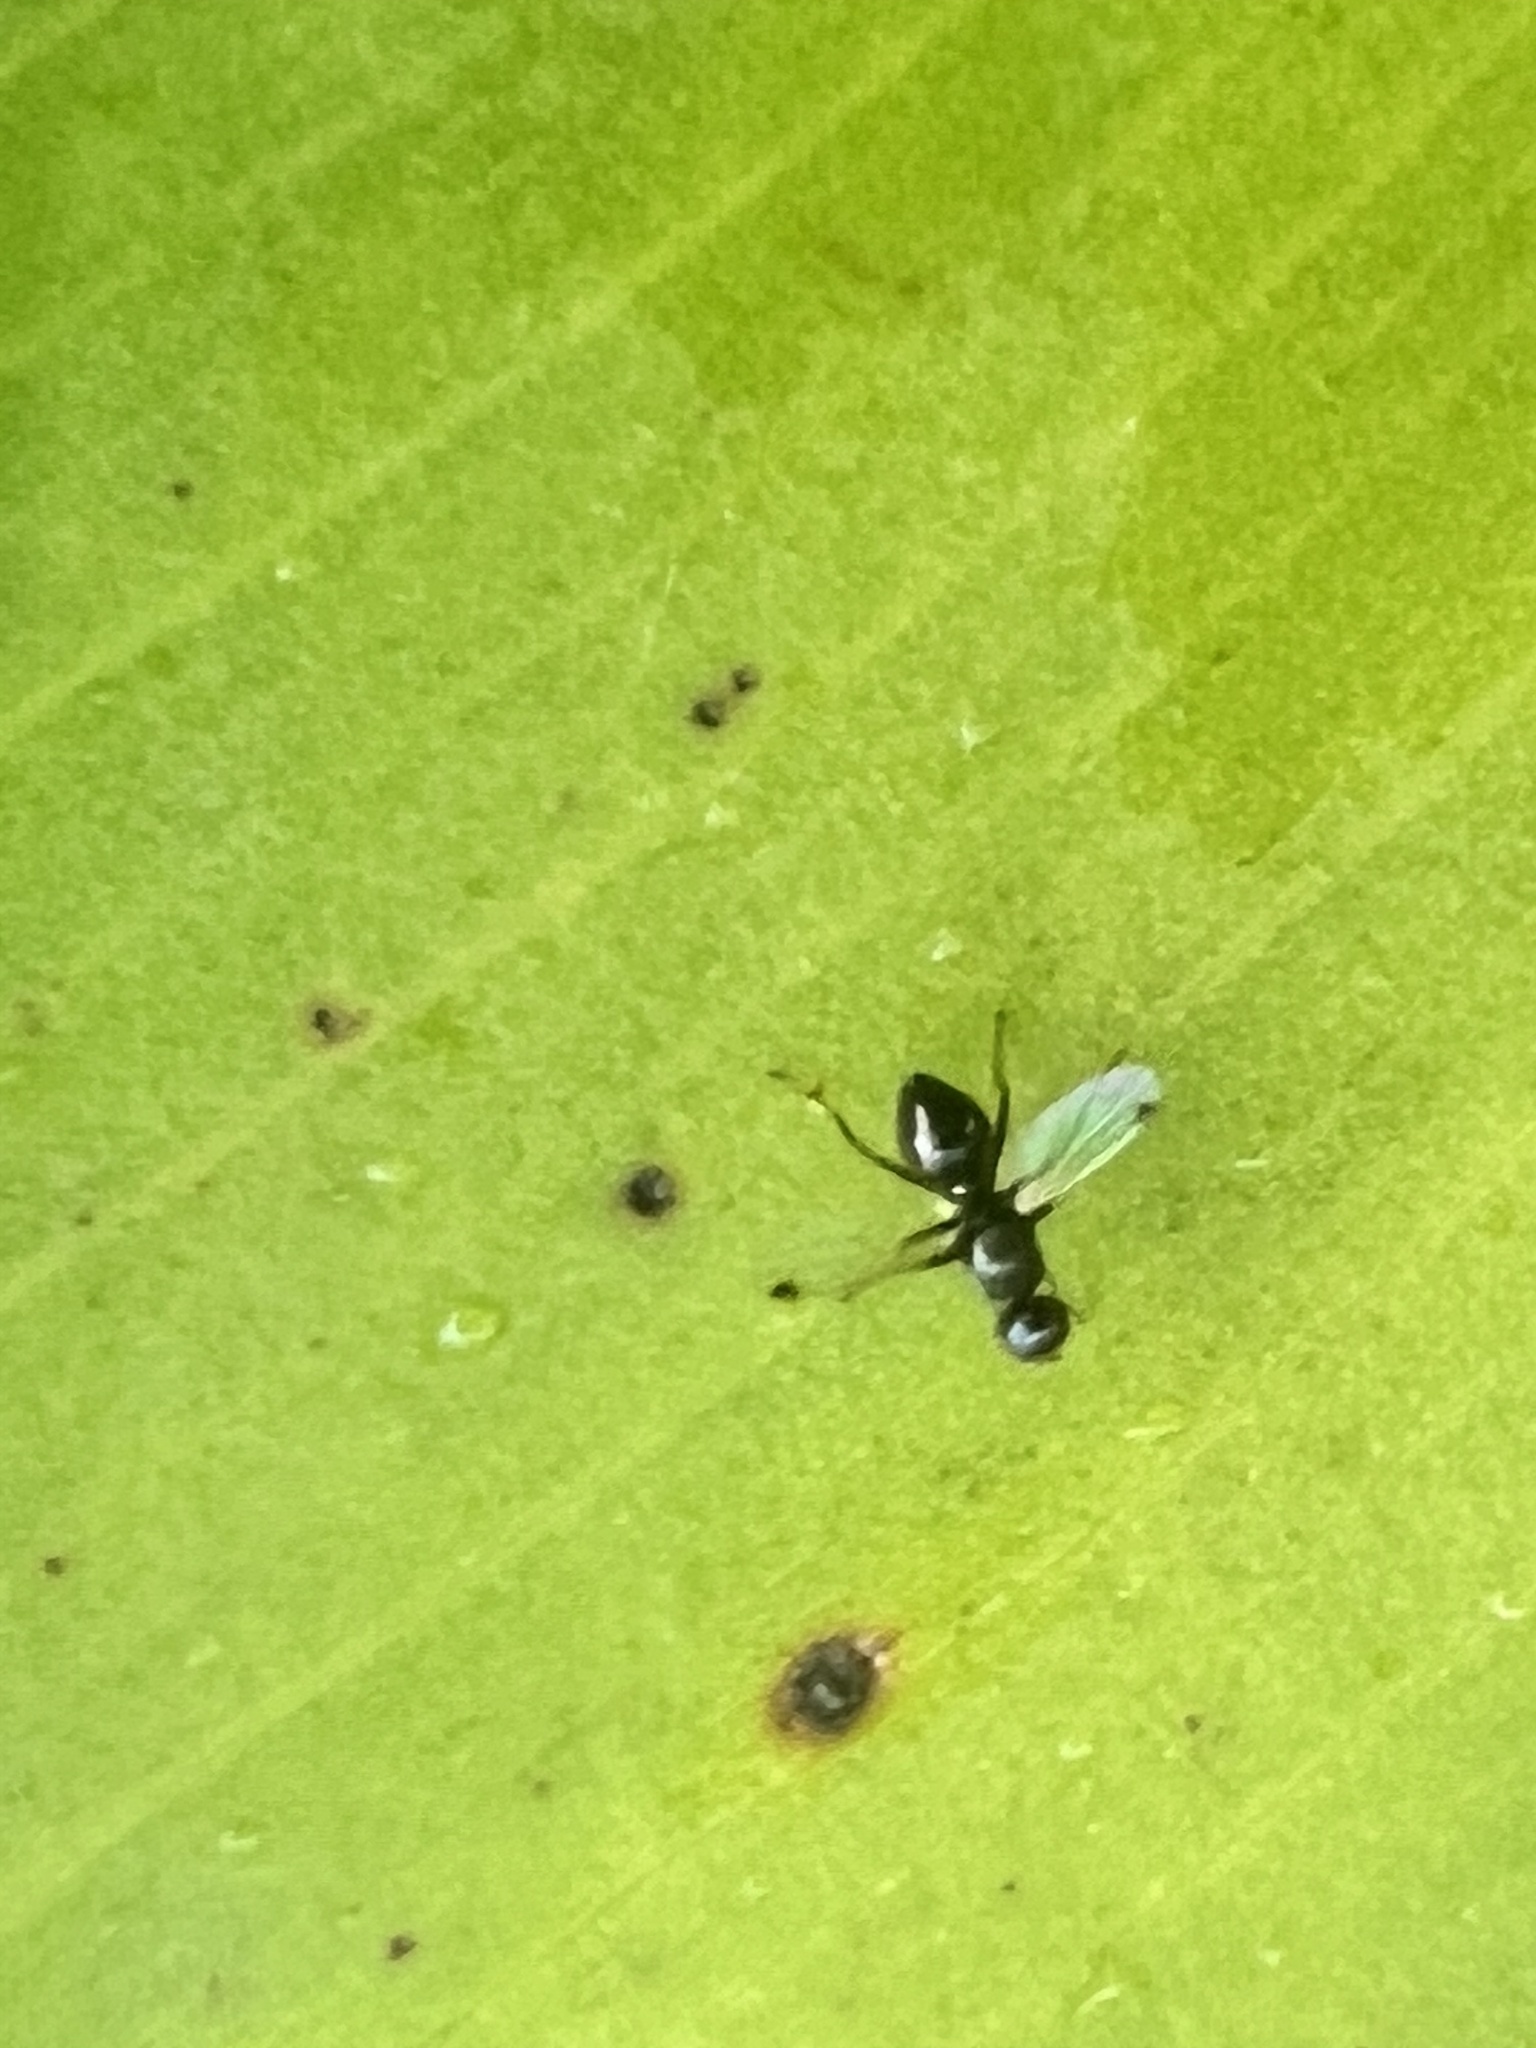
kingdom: Animalia
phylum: Arthropoda
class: Insecta
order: Diptera
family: Sepsidae
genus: Parapalaeosepsis
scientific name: Parapalaeosepsis plebeia
